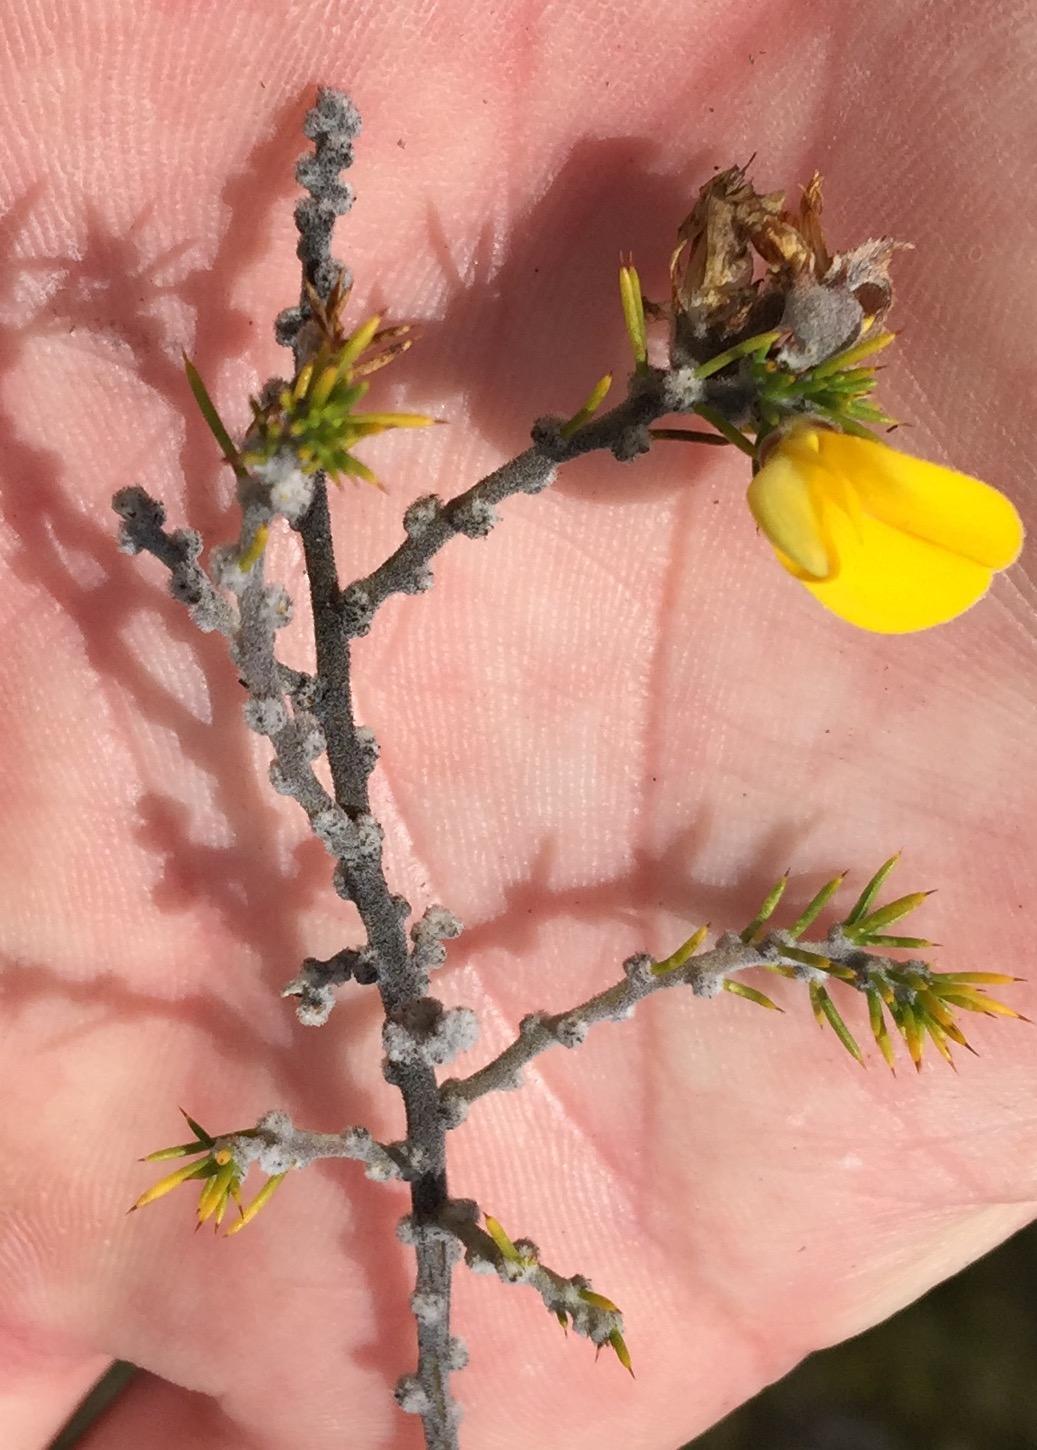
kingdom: Plantae
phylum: Tracheophyta
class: Magnoliopsida
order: Fabales
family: Fabaceae
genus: Aspalathus
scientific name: Aspalathus hirta
